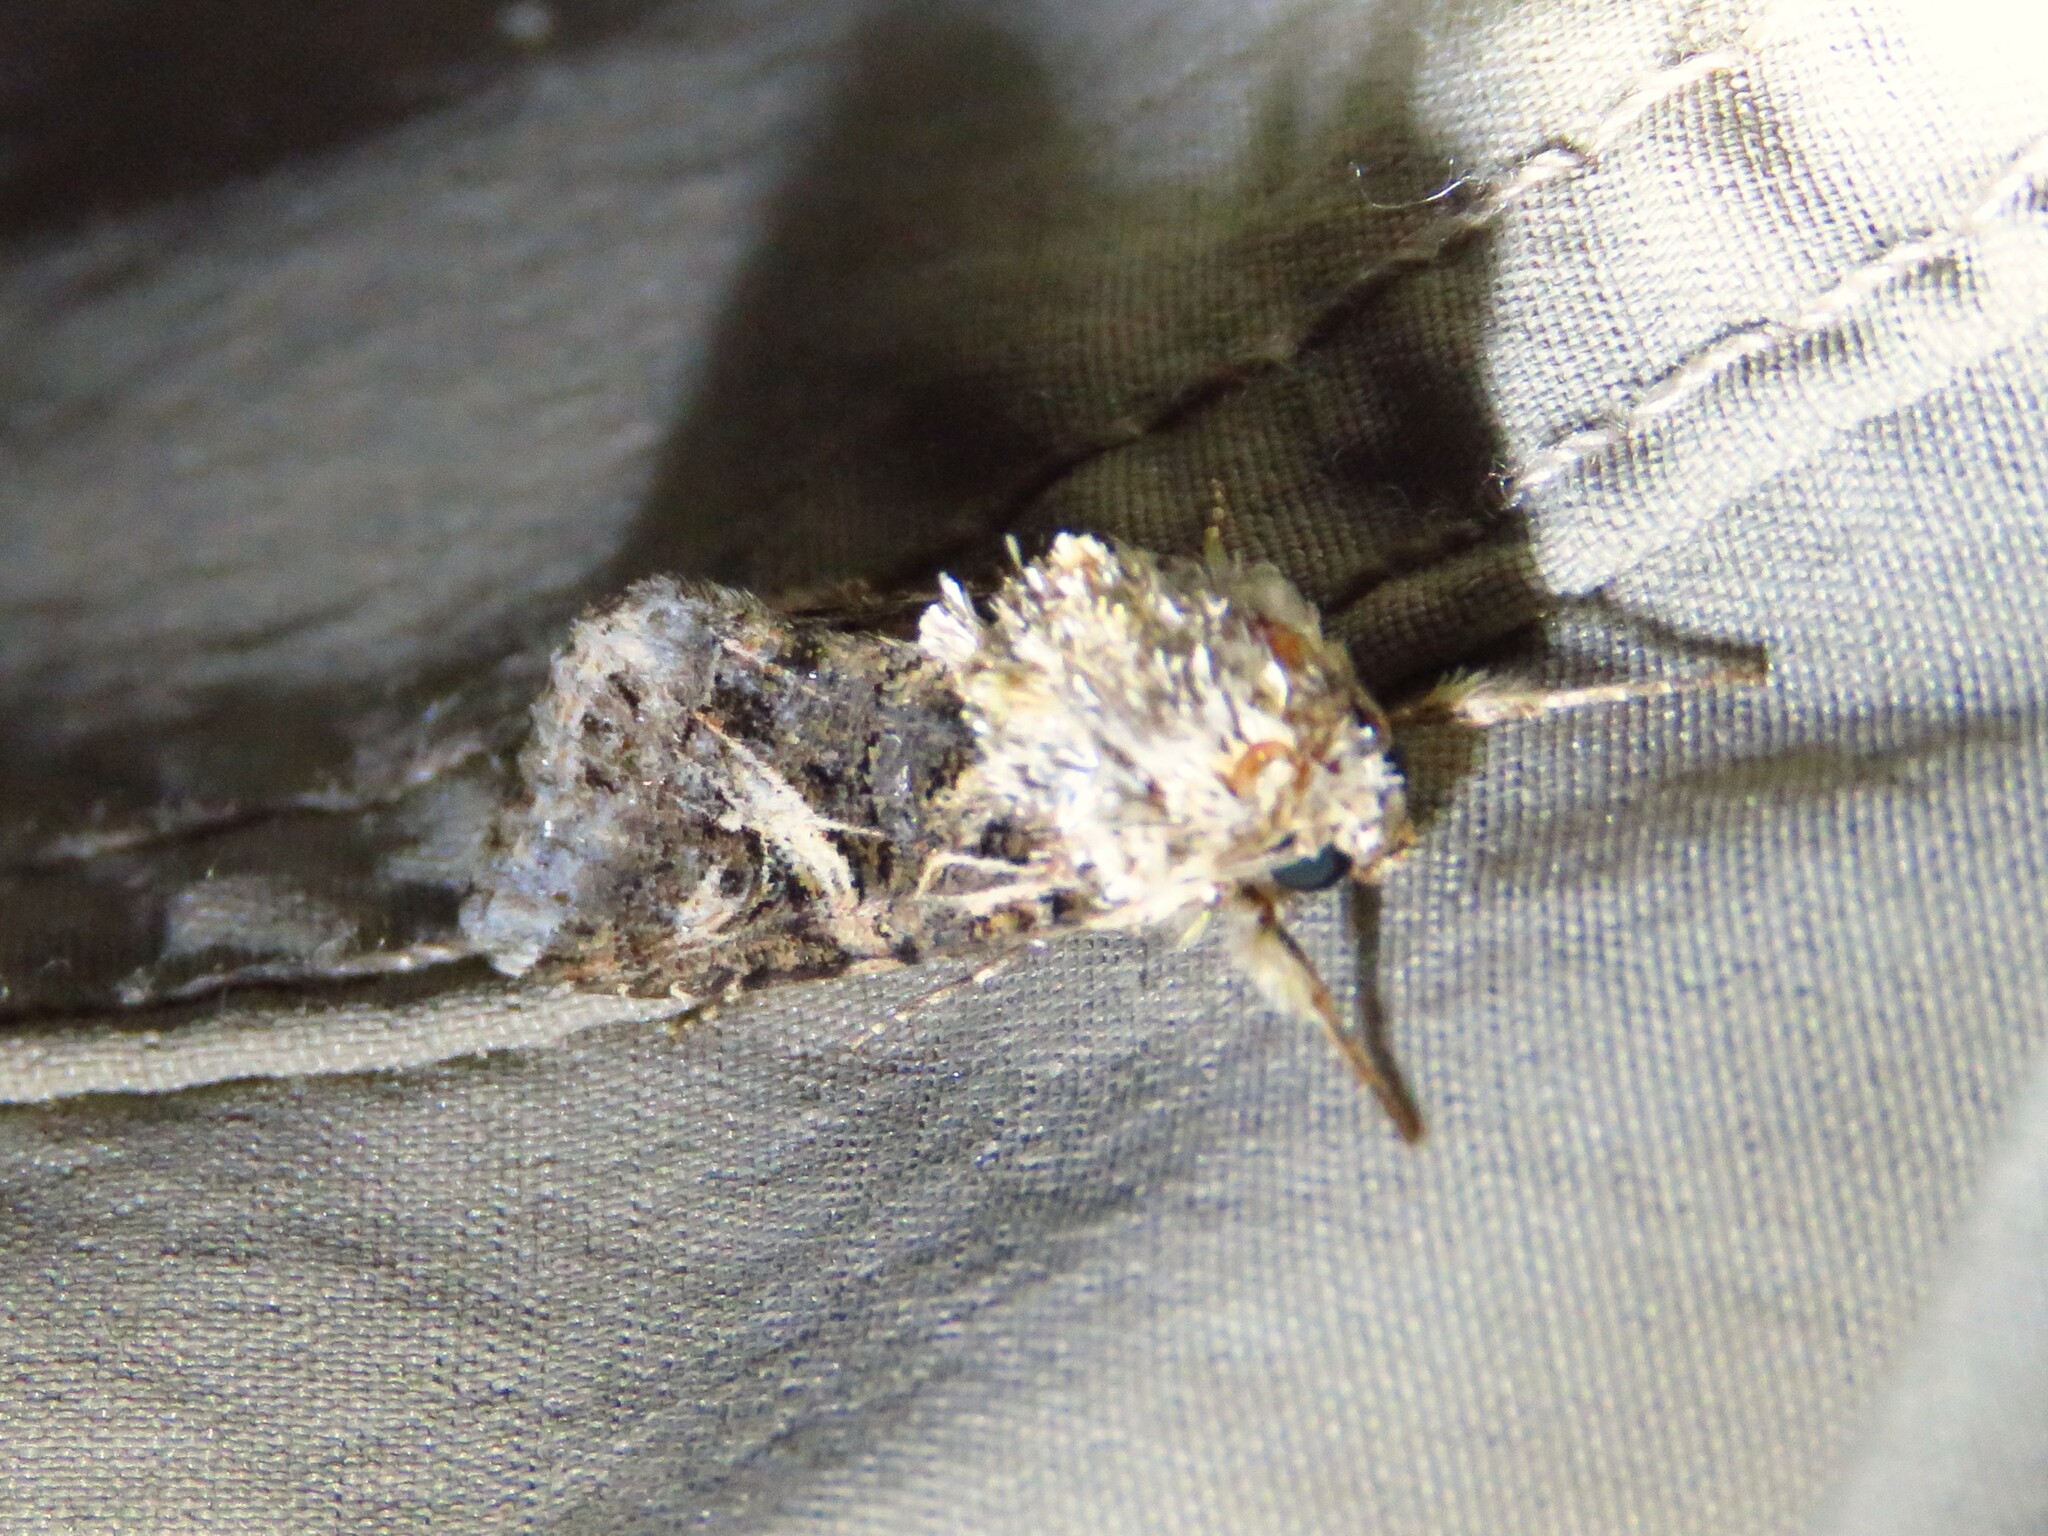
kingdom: Animalia
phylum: Arthropoda
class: Insecta
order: Lepidoptera
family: Noctuidae
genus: Spodoptera
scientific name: Spodoptera ornithogalli
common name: Yellow-striped armyworm
